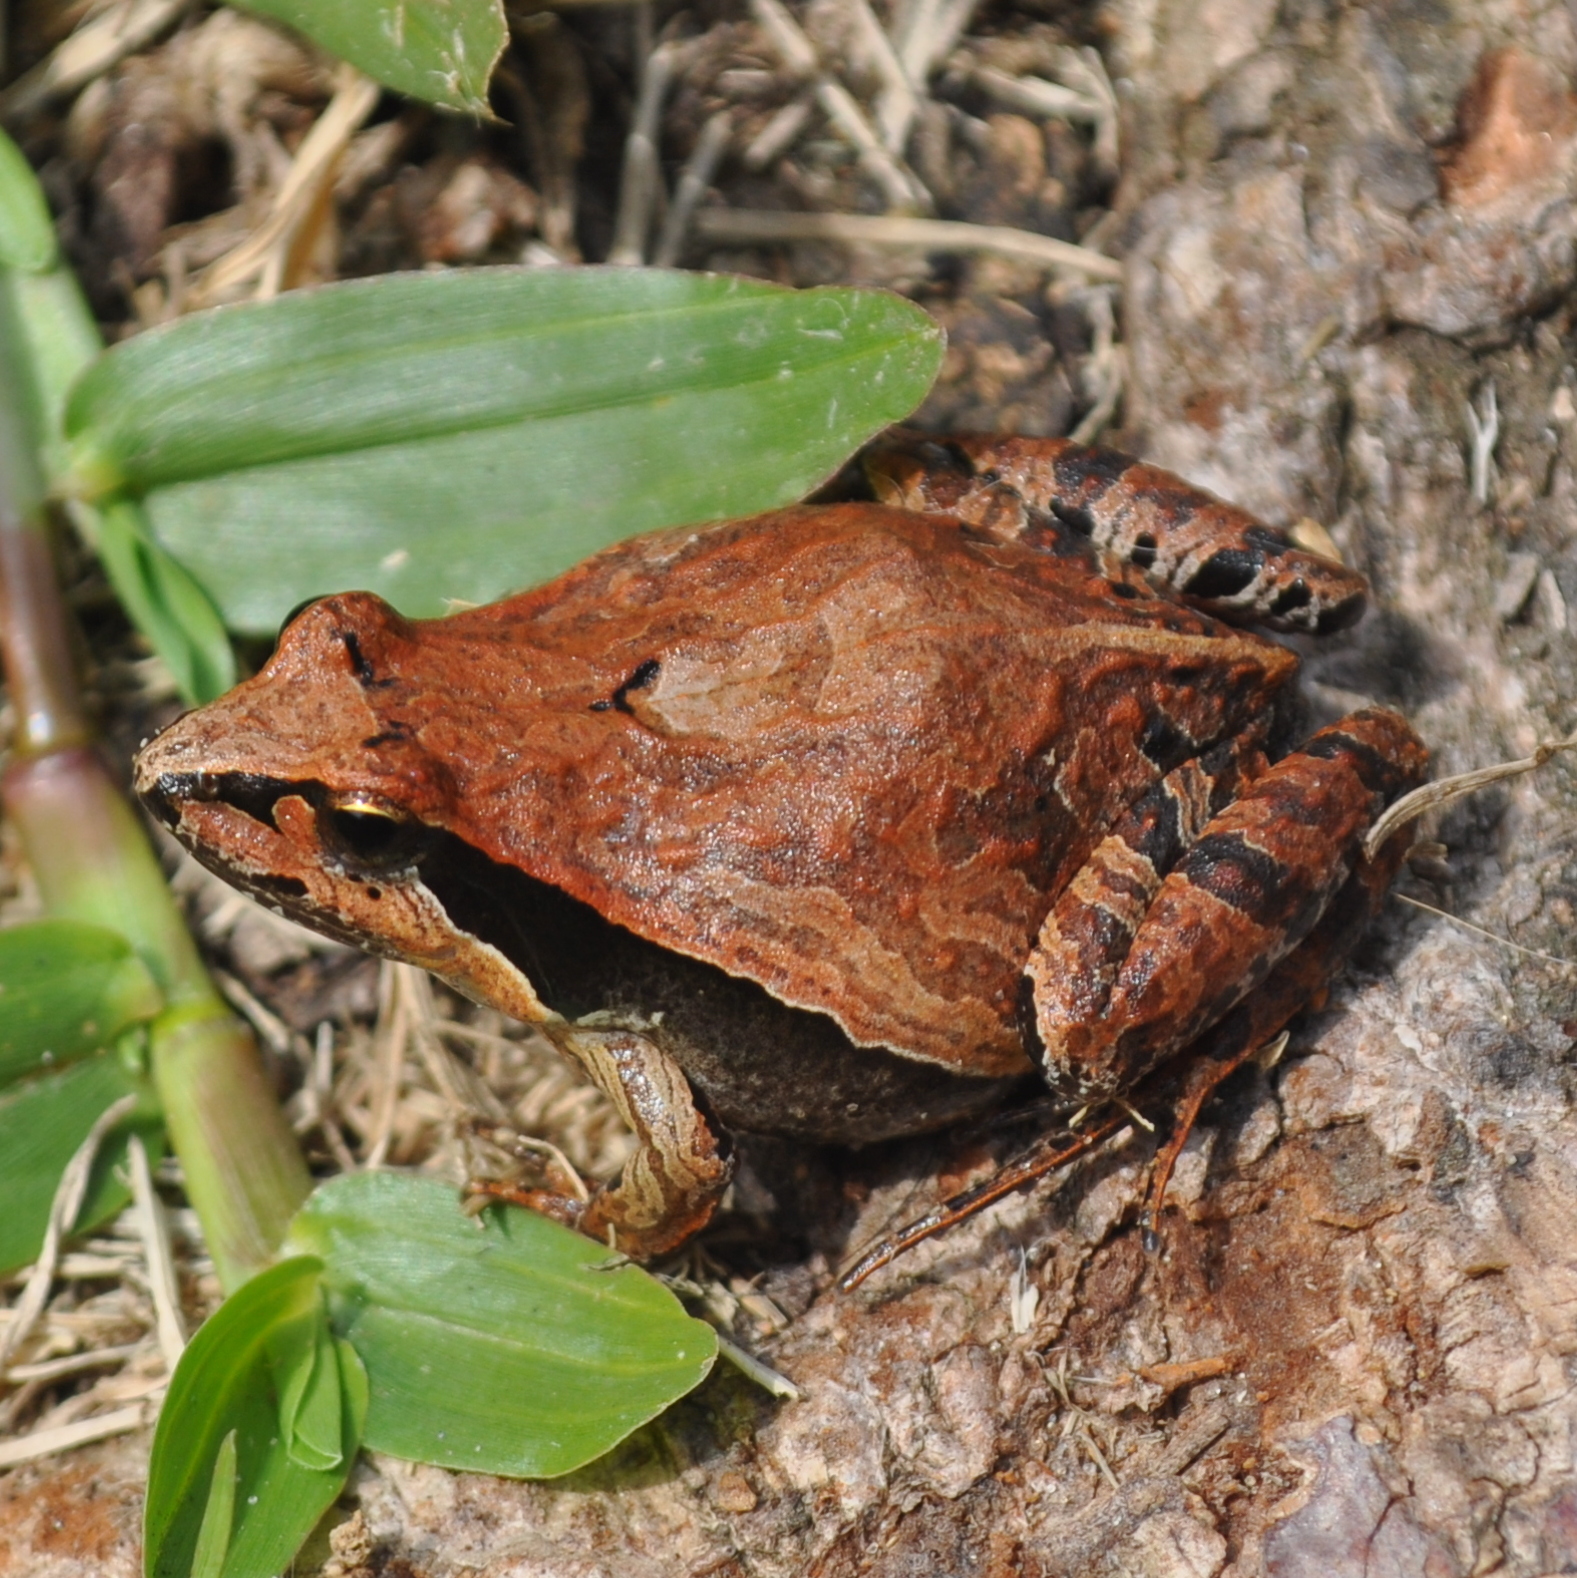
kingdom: Animalia
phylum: Chordata
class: Amphibia
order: Anura
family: Leptodactylidae
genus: Physalaemus
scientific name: Physalaemus gracilis
